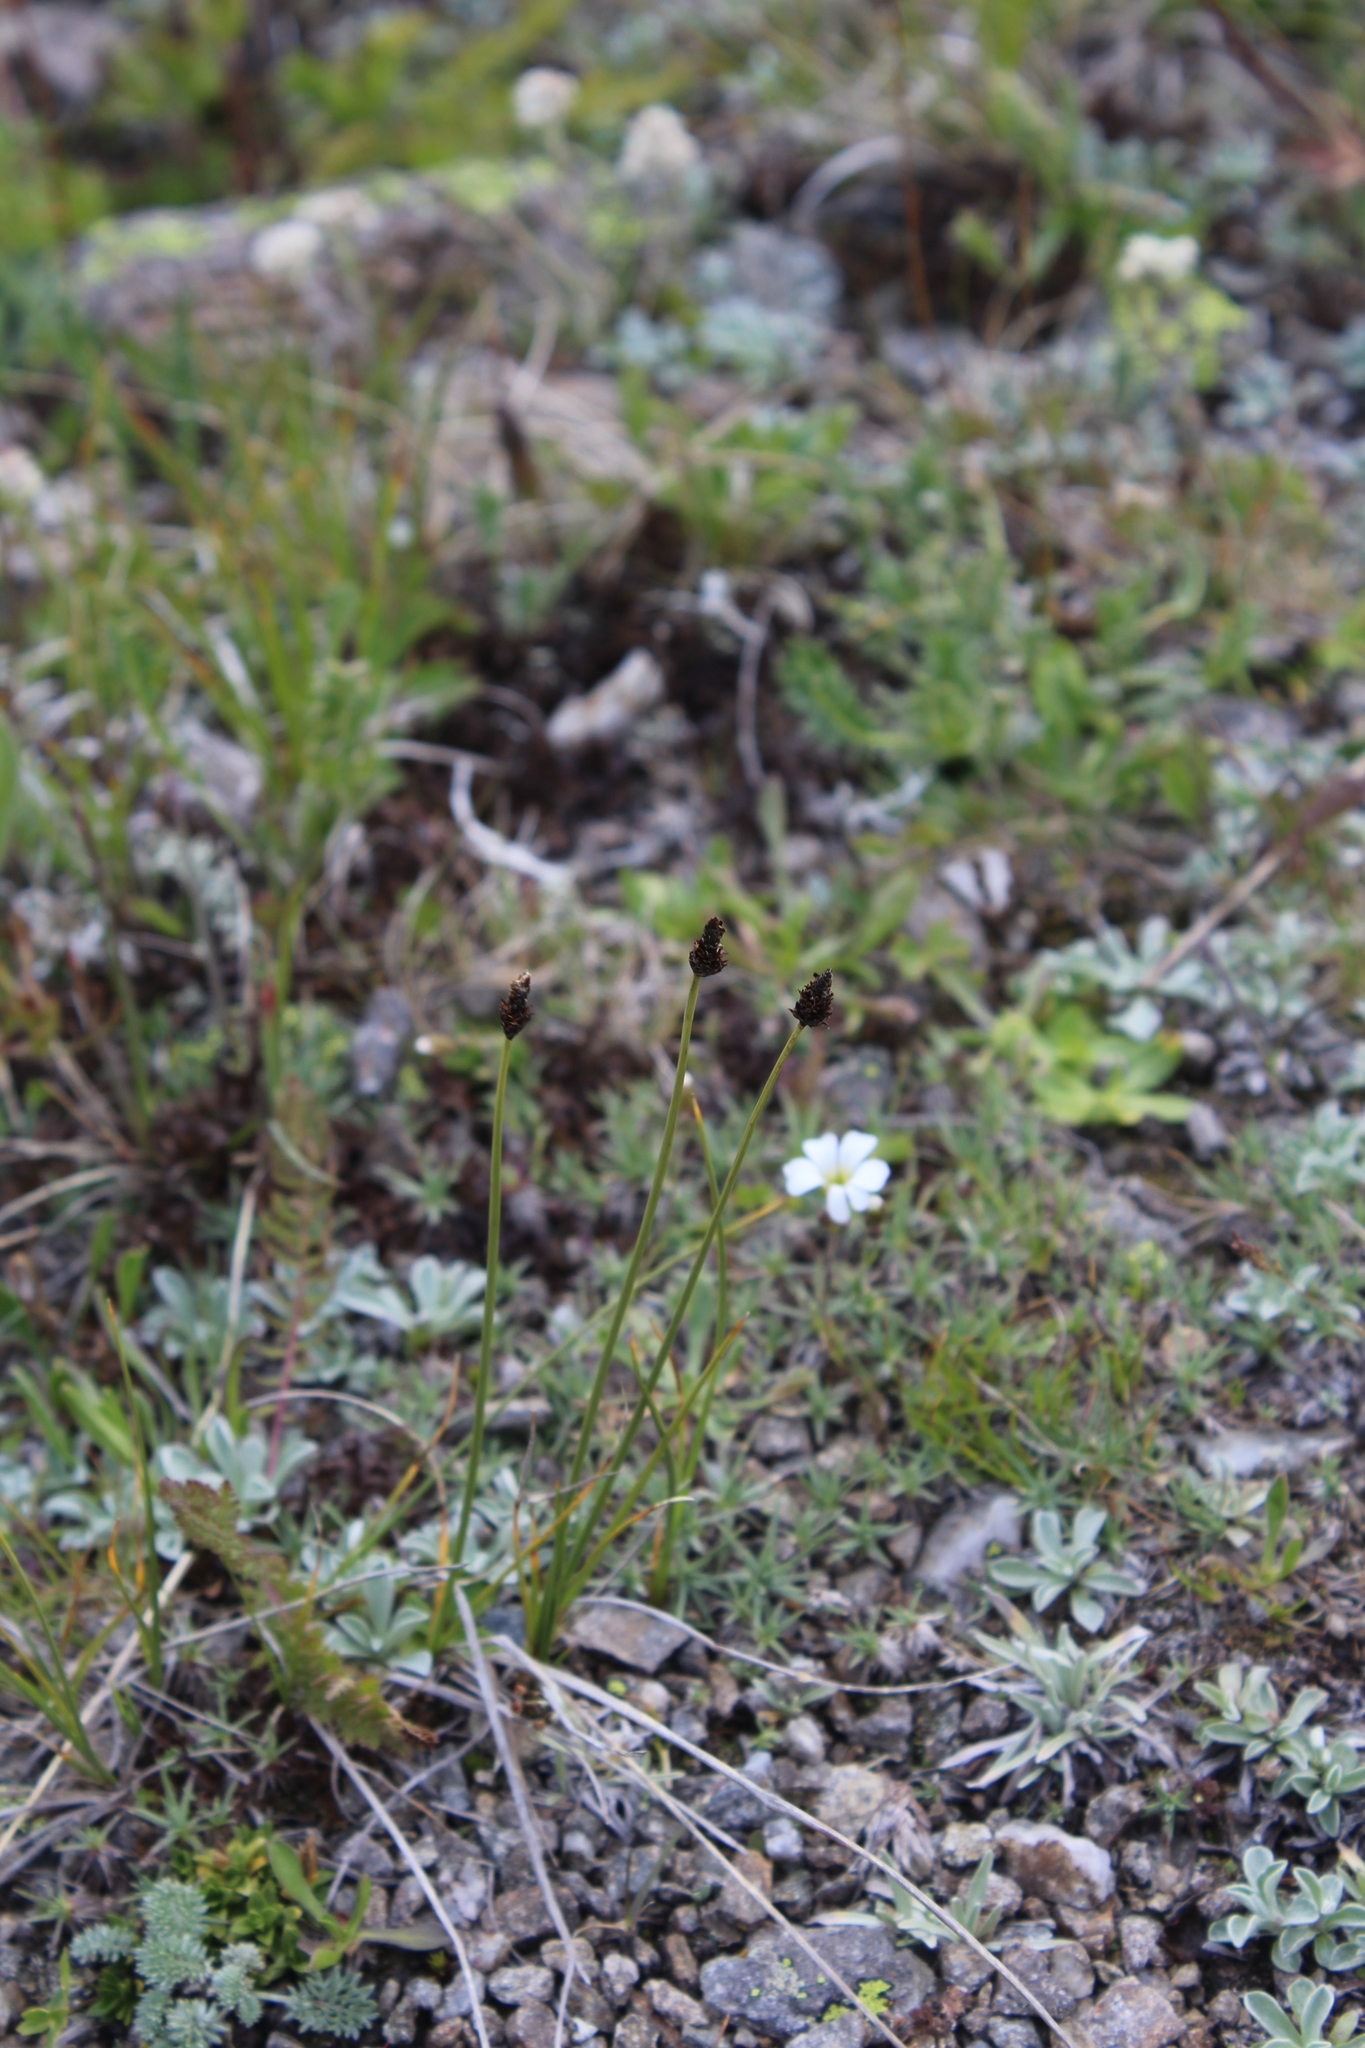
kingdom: Plantae
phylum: Tracheophyta
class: Liliopsida
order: Poales
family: Cyperaceae
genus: Carex
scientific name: Carex oreophila
